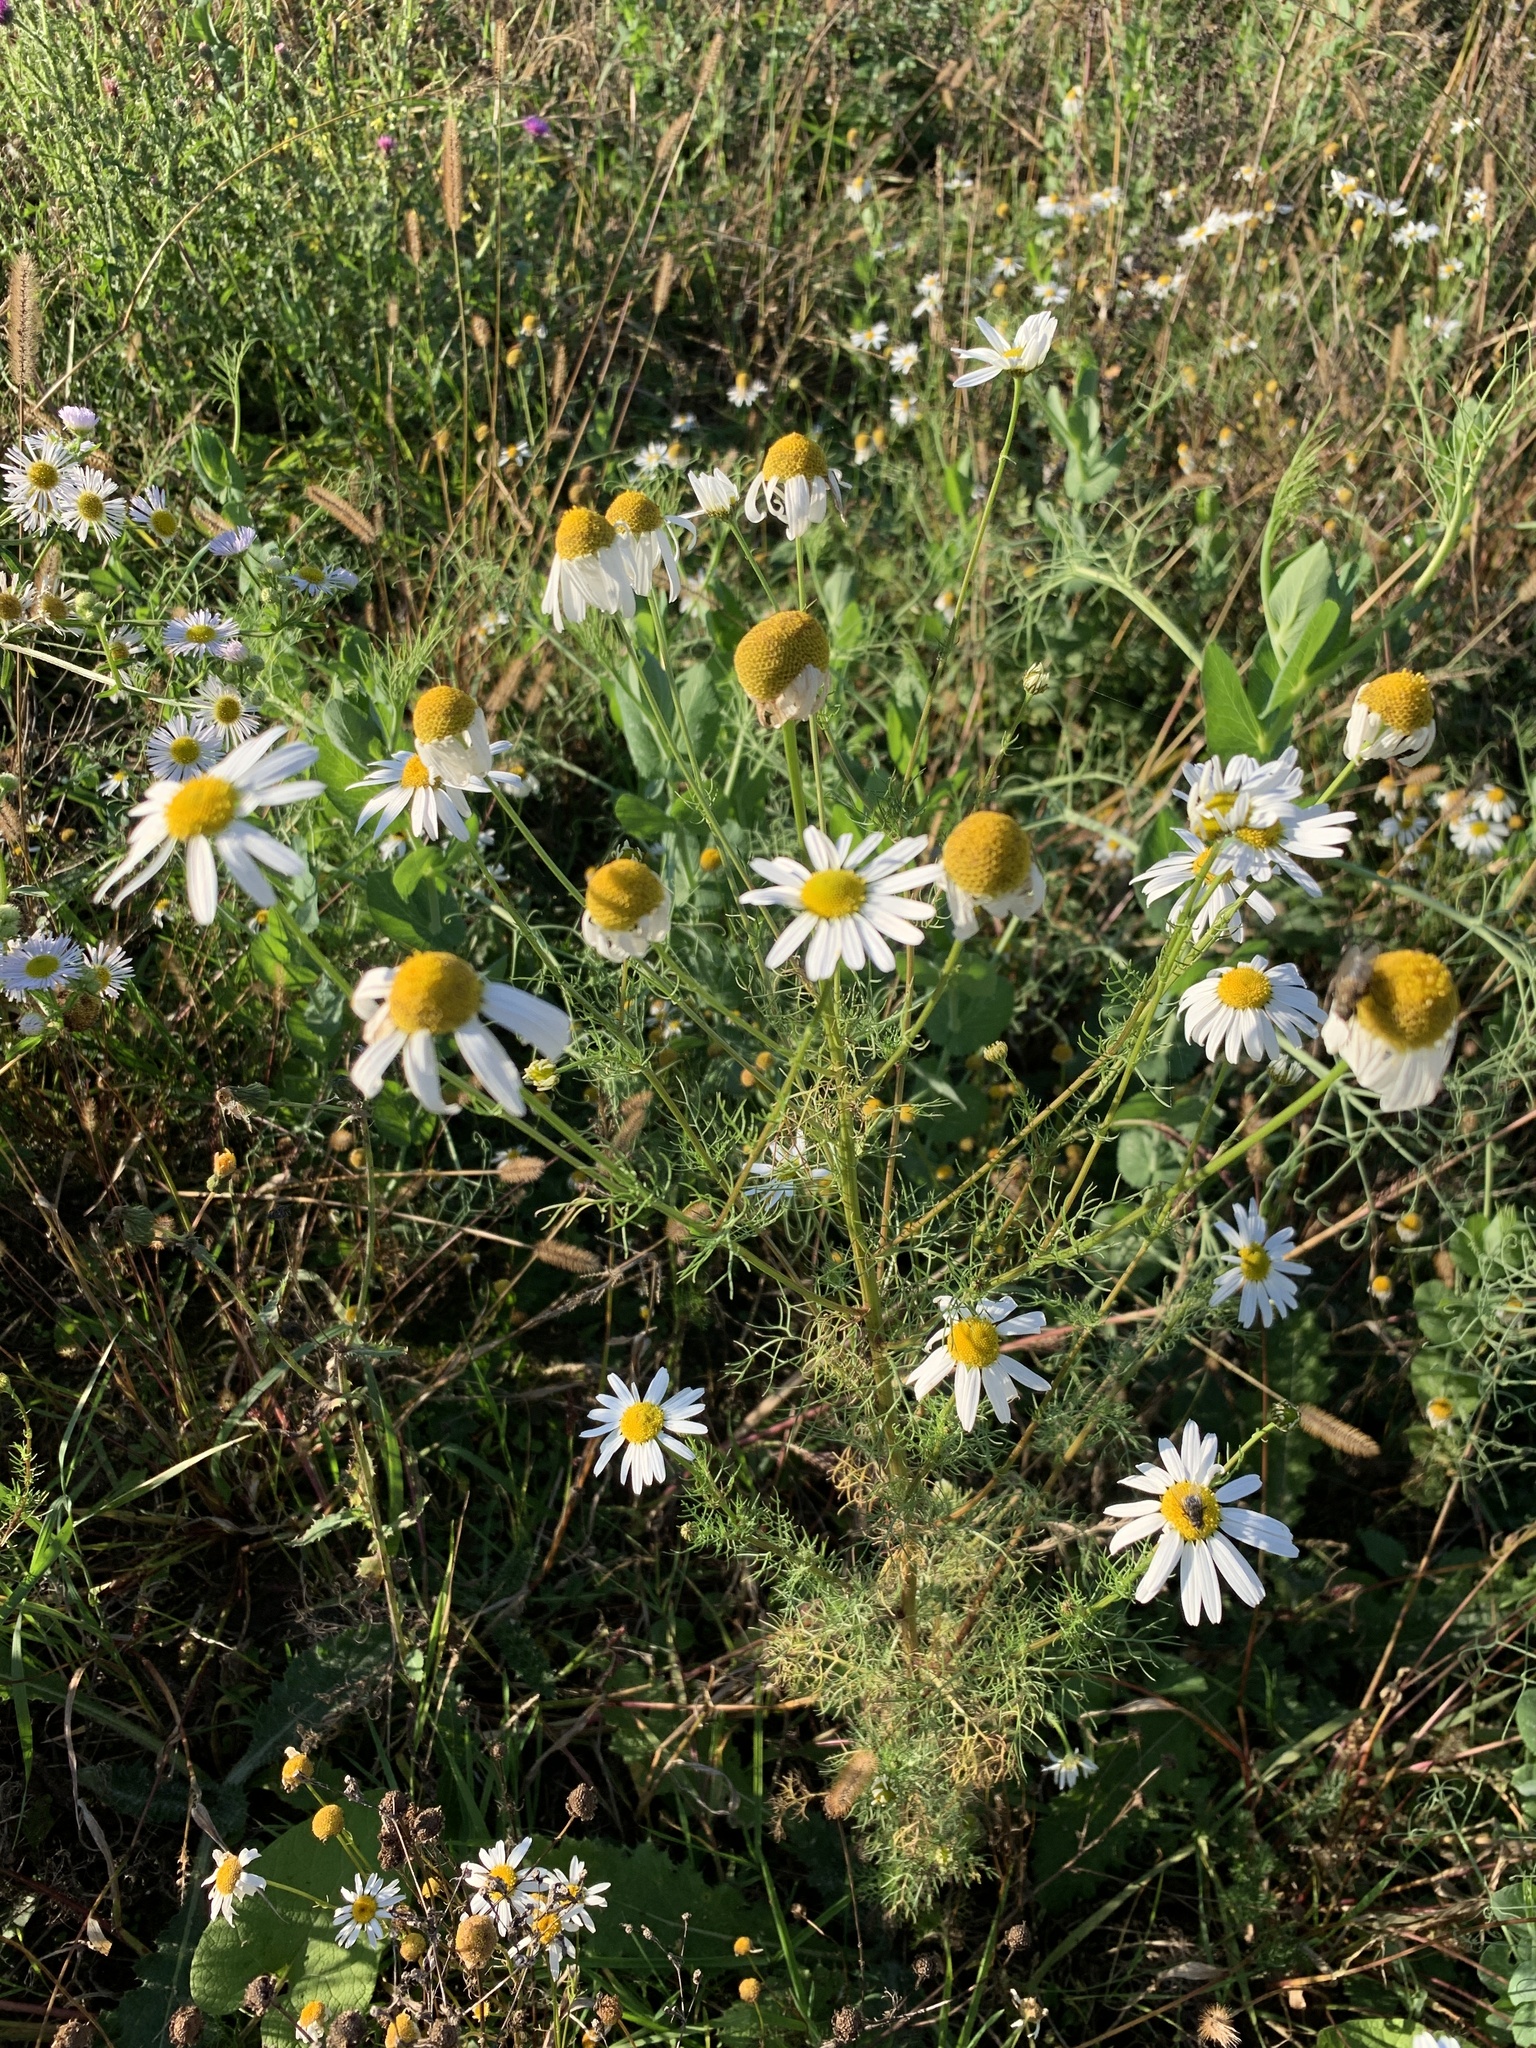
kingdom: Plantae
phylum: Tracheophyta
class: Magnoliopsida
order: Asterales
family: Asteraceae
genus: Tripleurospermum
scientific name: Tripleurospermum inodorum
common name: Scentless mayweed
